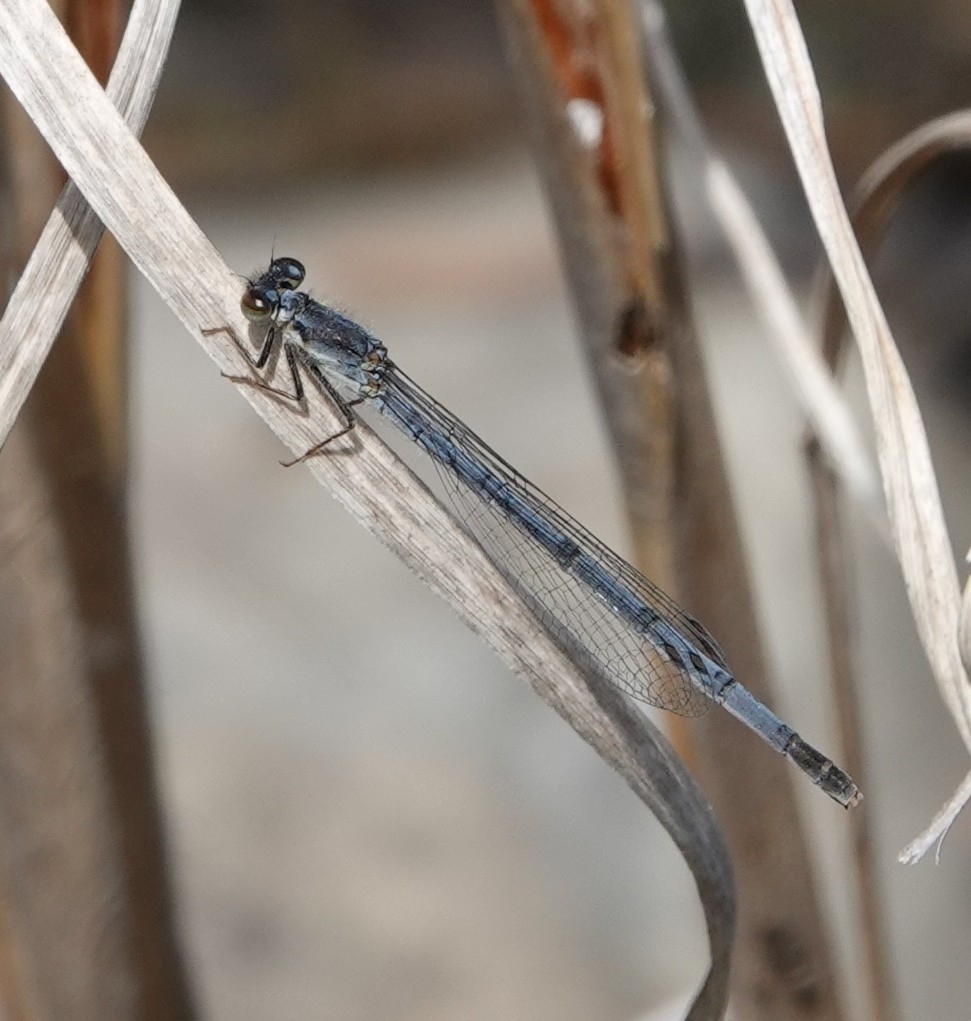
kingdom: Animalia
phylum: Arthropoda
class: Insecta
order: Odonata
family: Coenagrionidae
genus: Ischnura
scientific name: Ischnura posita
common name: Fragile forktail
